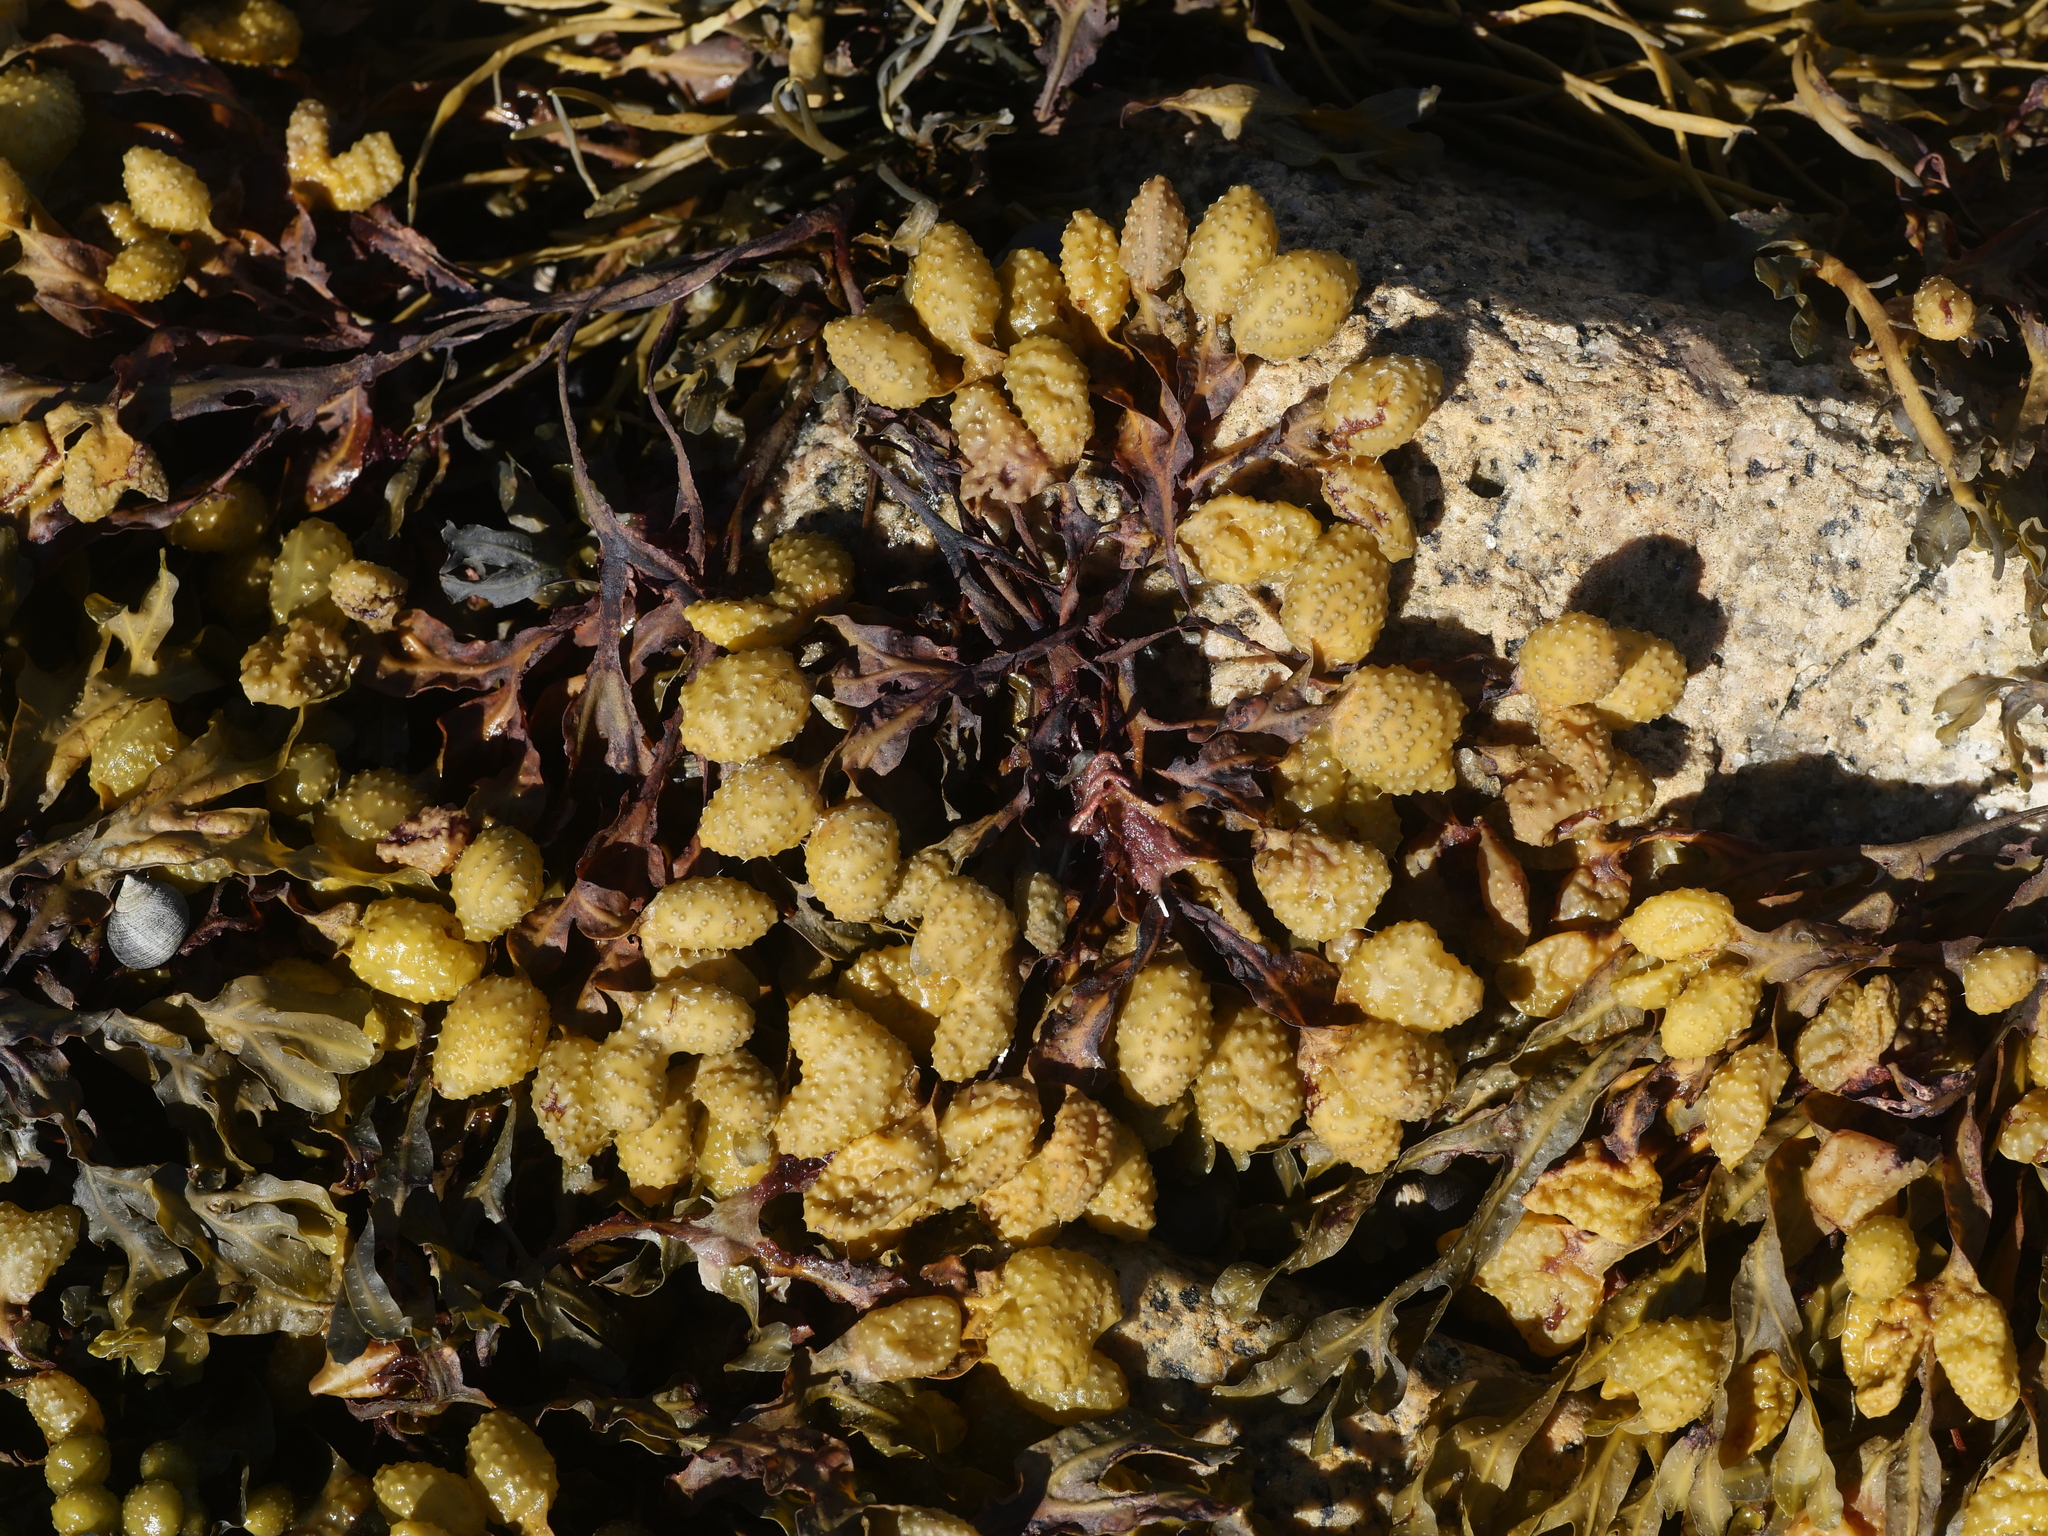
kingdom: Chromista
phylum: Ochrophyta
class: Phaeophyceae
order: Fucales
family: Fucaceae
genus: Fucus
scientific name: Fucus spiralis
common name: Spiral wrack
